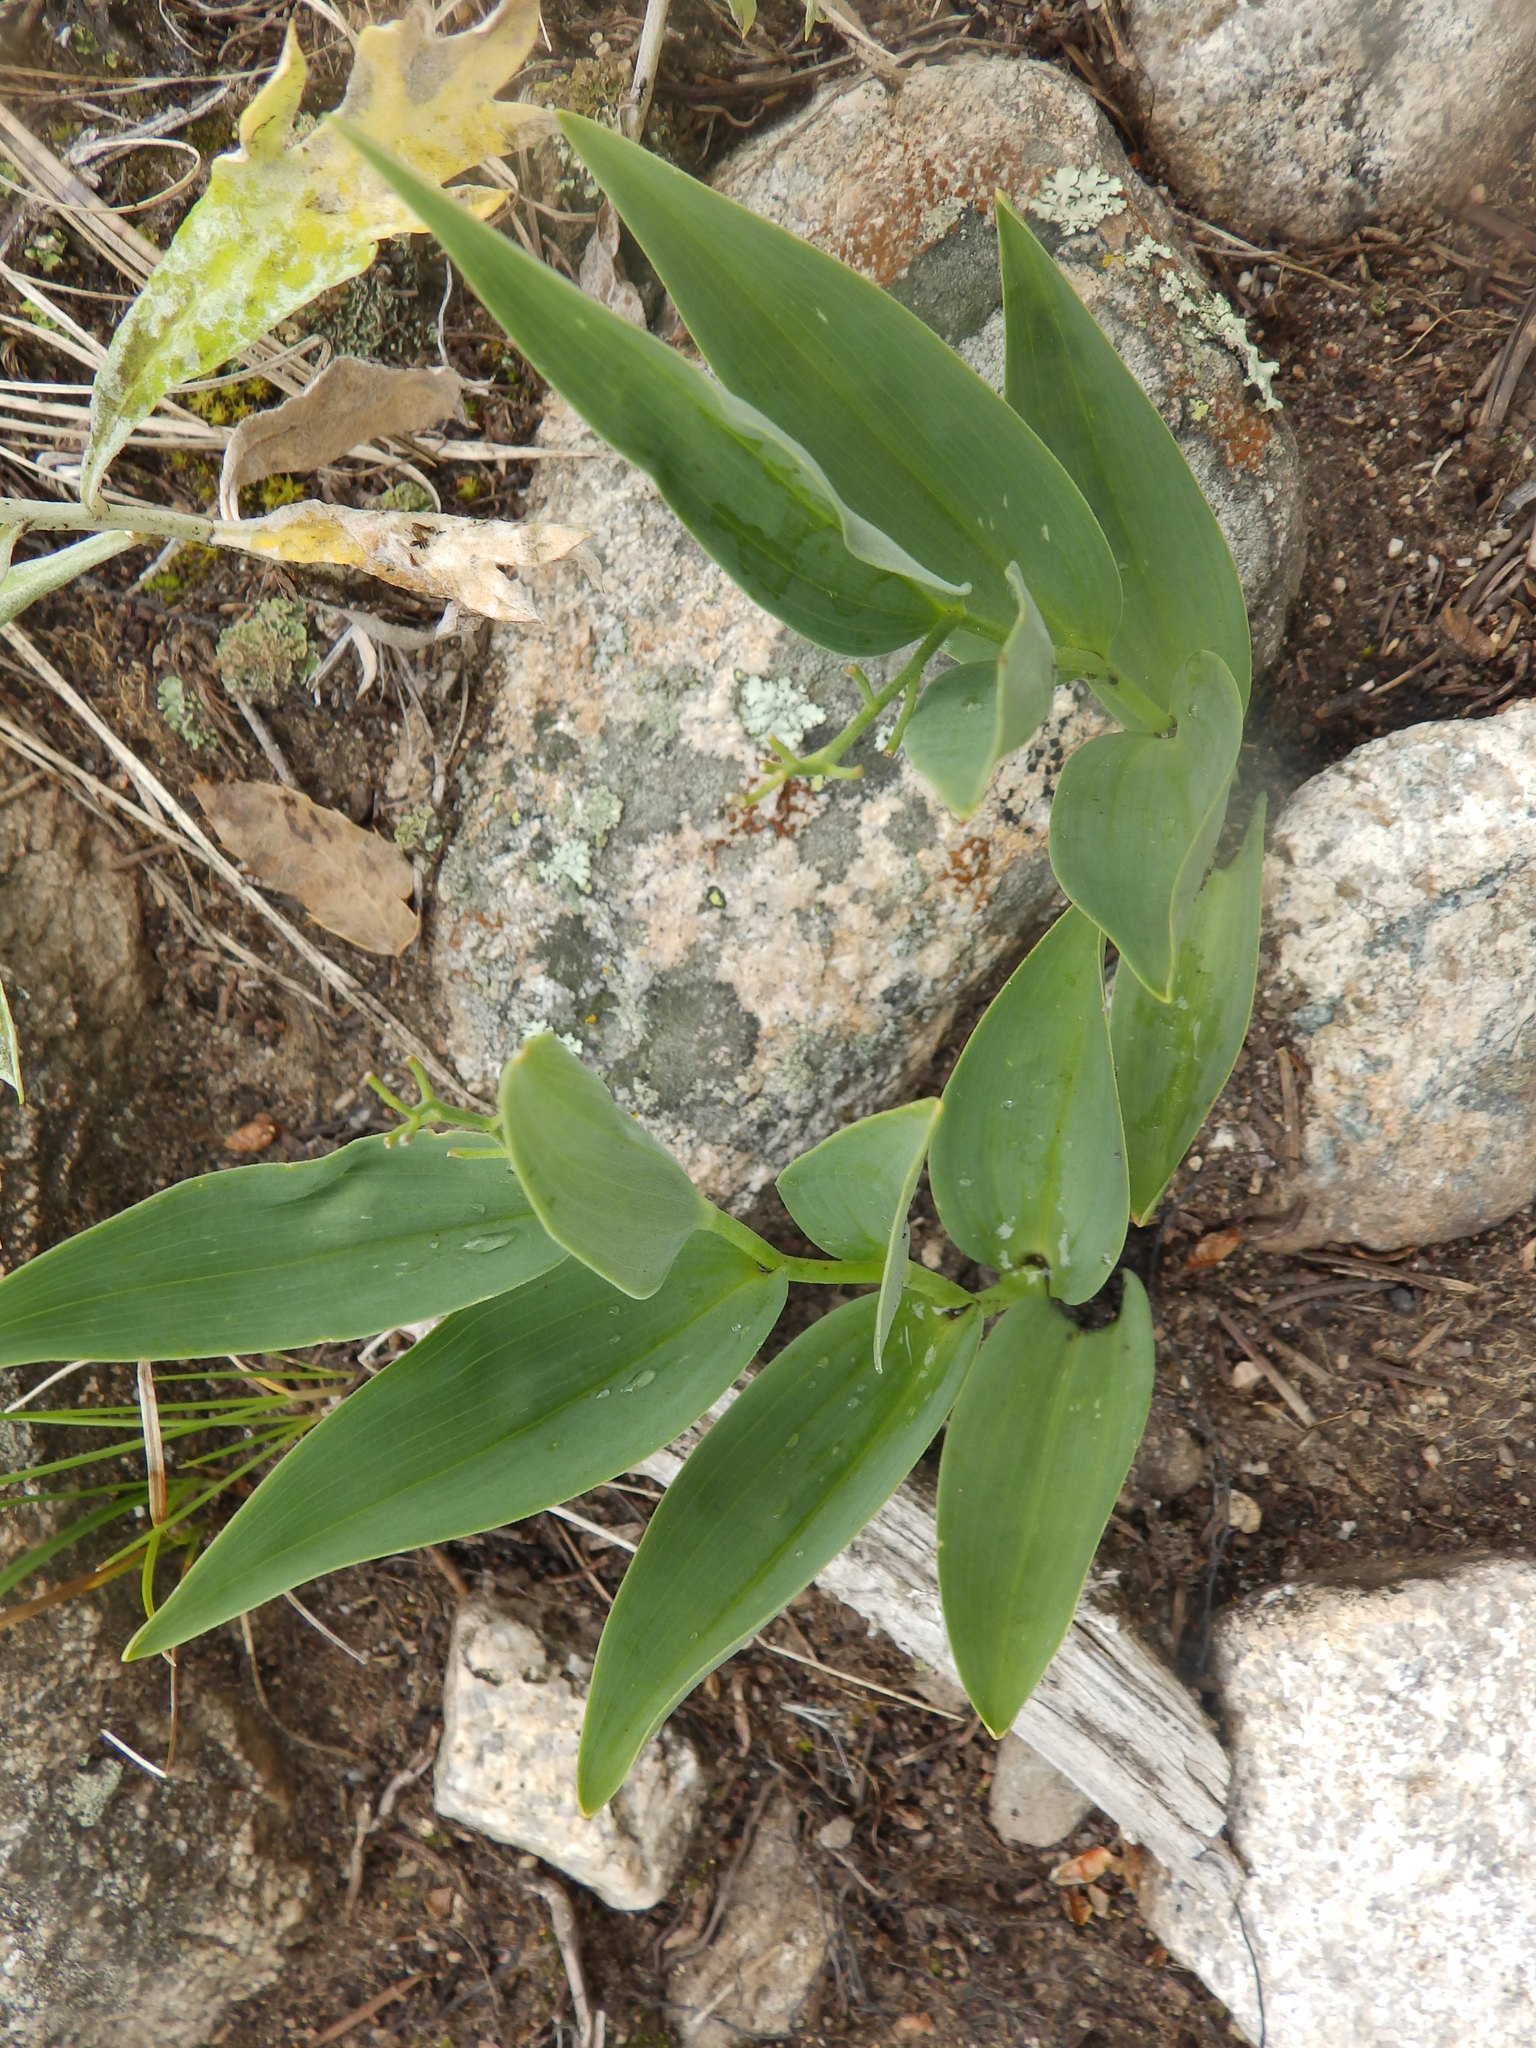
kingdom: Plantae
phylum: Tracheophyta
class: Liliopsida
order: Asparagales
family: Asparagaceae
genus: Maianthemum
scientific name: Maianthemum stellatum
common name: Little false solomon's seal
